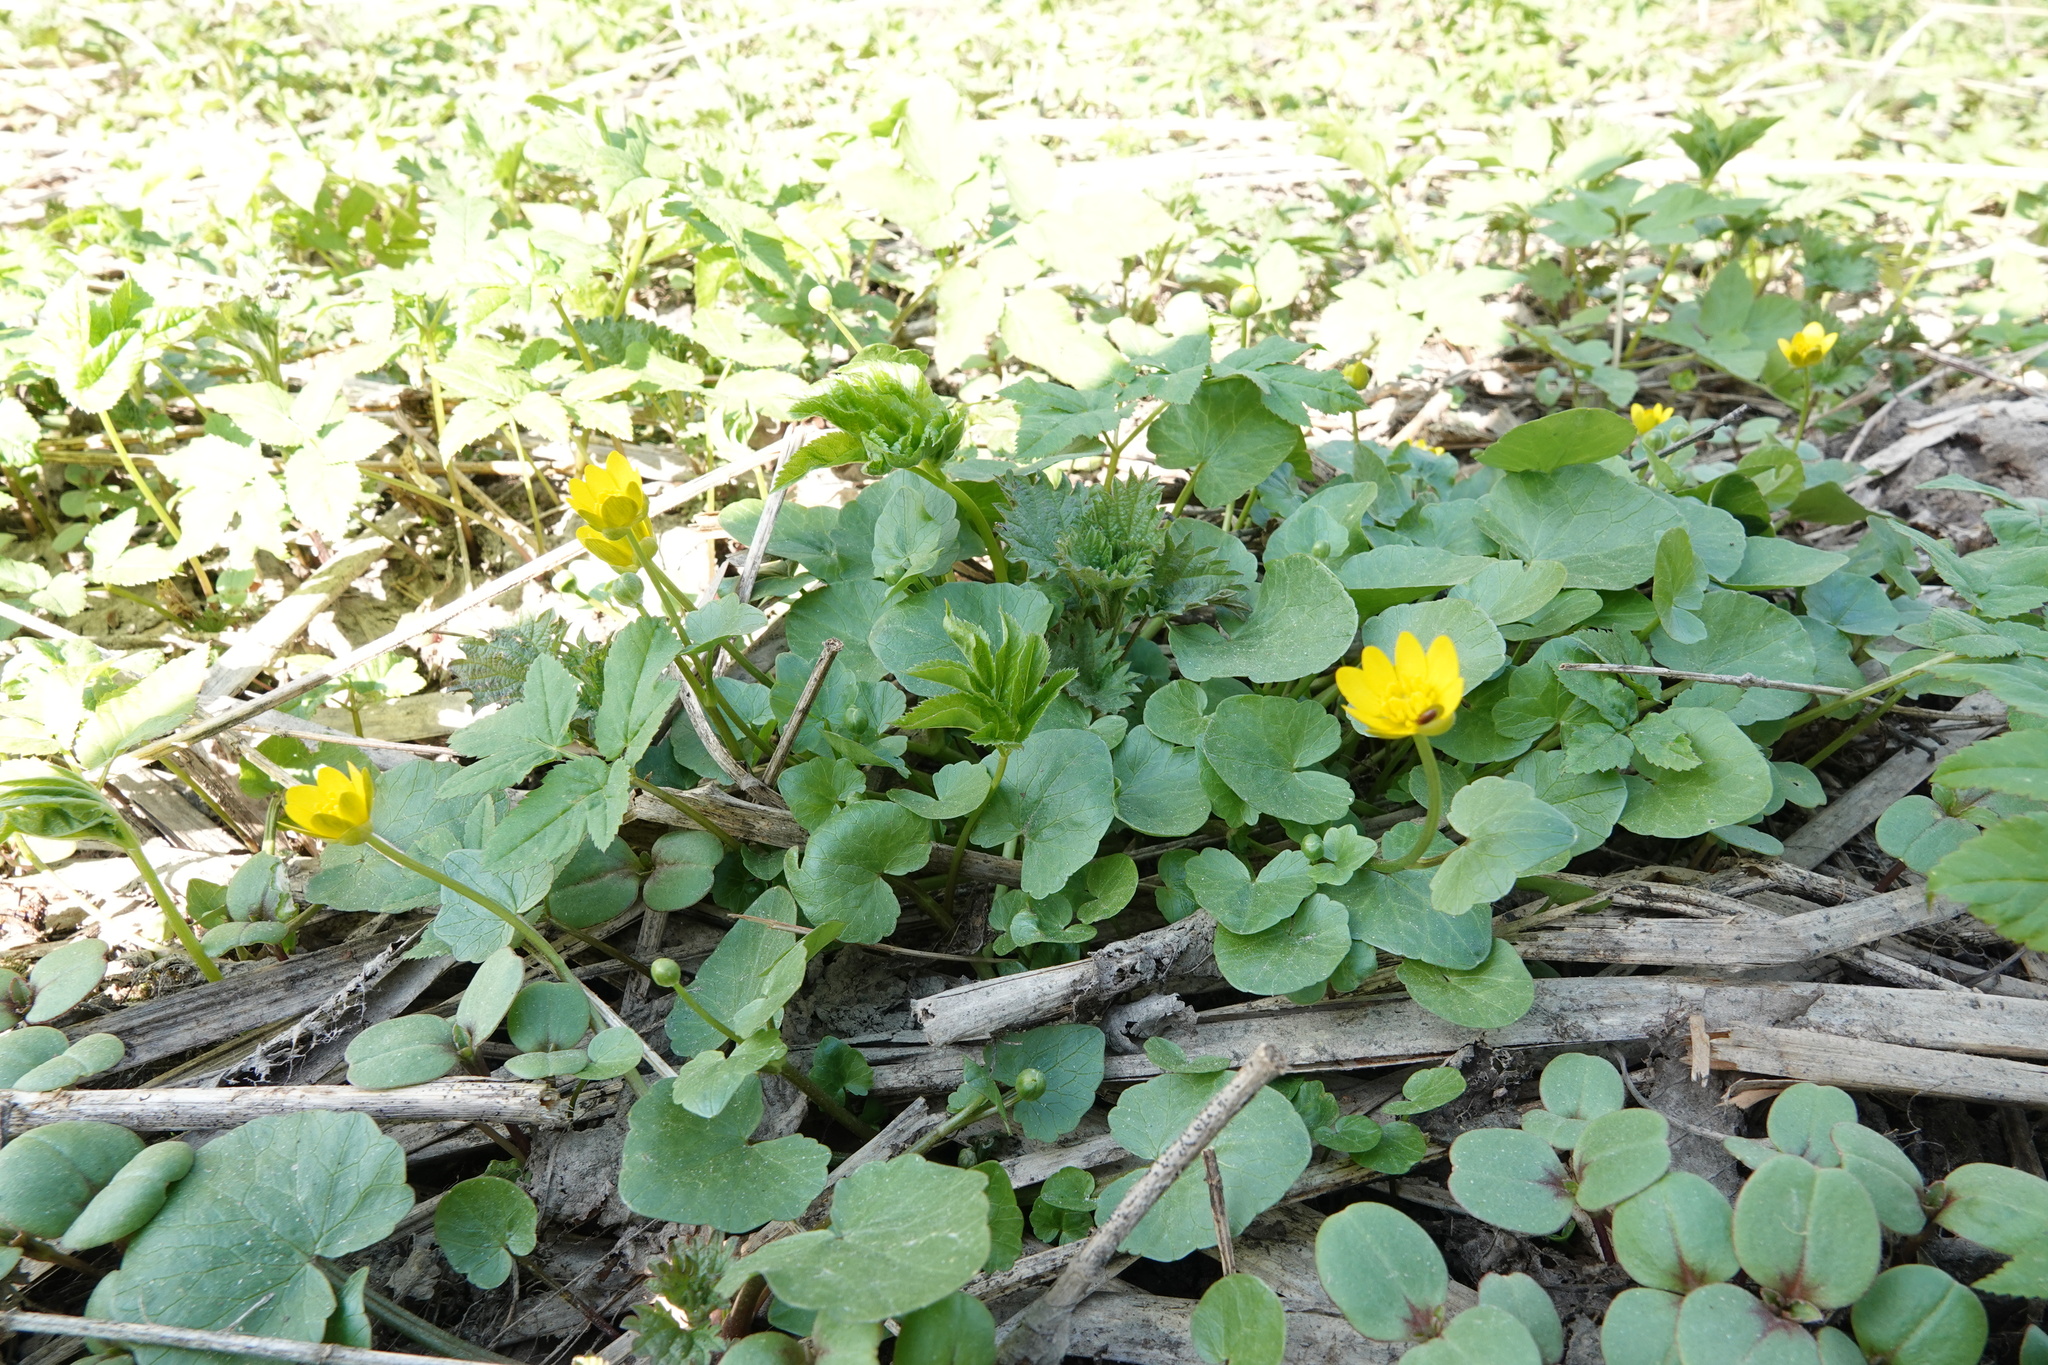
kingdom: Plantae
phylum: Tracheophyta
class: Magnoliopsida
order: Ranunculales
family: Ranunculaceae
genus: Ficaria
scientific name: Ficaria verna
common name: Lesser celandine
